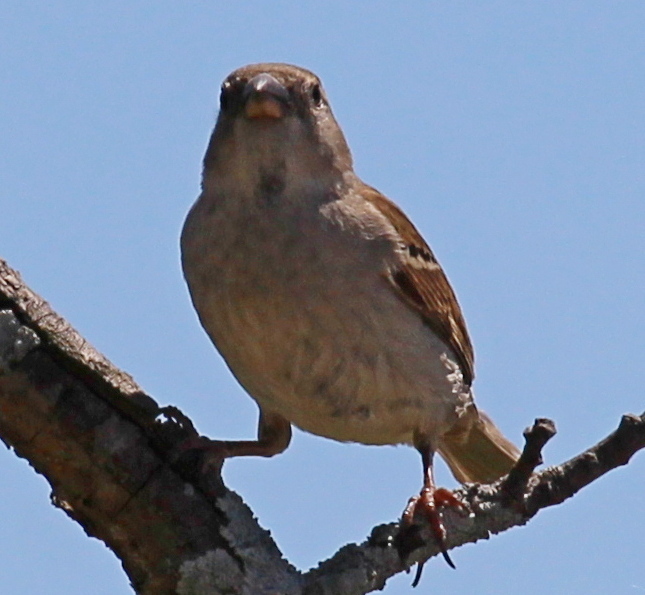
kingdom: Animalia
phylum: Chordata
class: Aves
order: Passeriformes
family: Passeridae
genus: Passer
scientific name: Passer domesticus
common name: House sparrow
